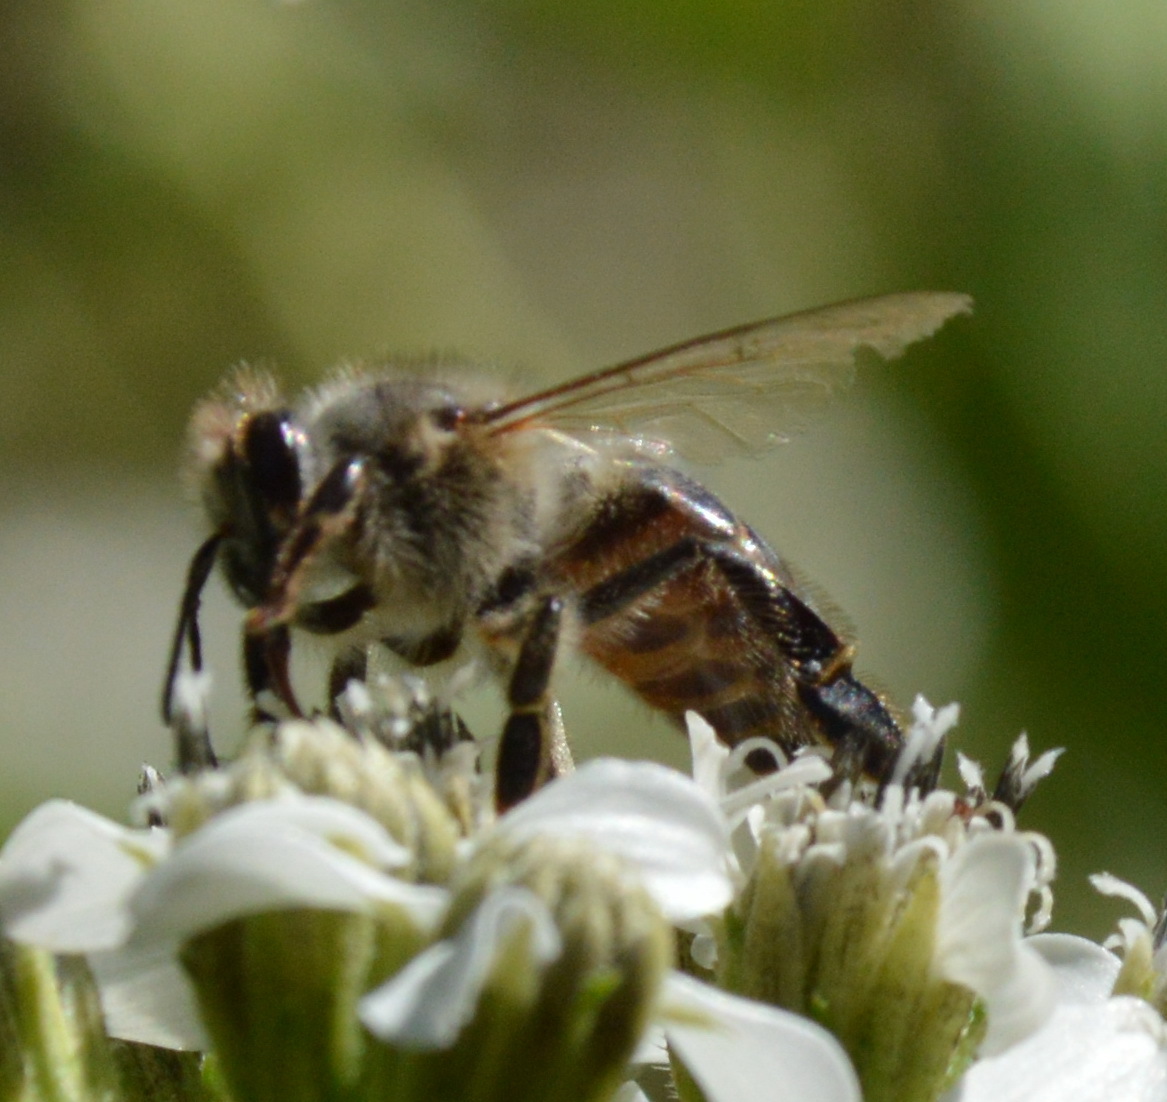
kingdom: Animalia
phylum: Arthropoda
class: Insecta
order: Hymenoptera
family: Apidae
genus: Apis
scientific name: Apis mellifera
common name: Honey bee
